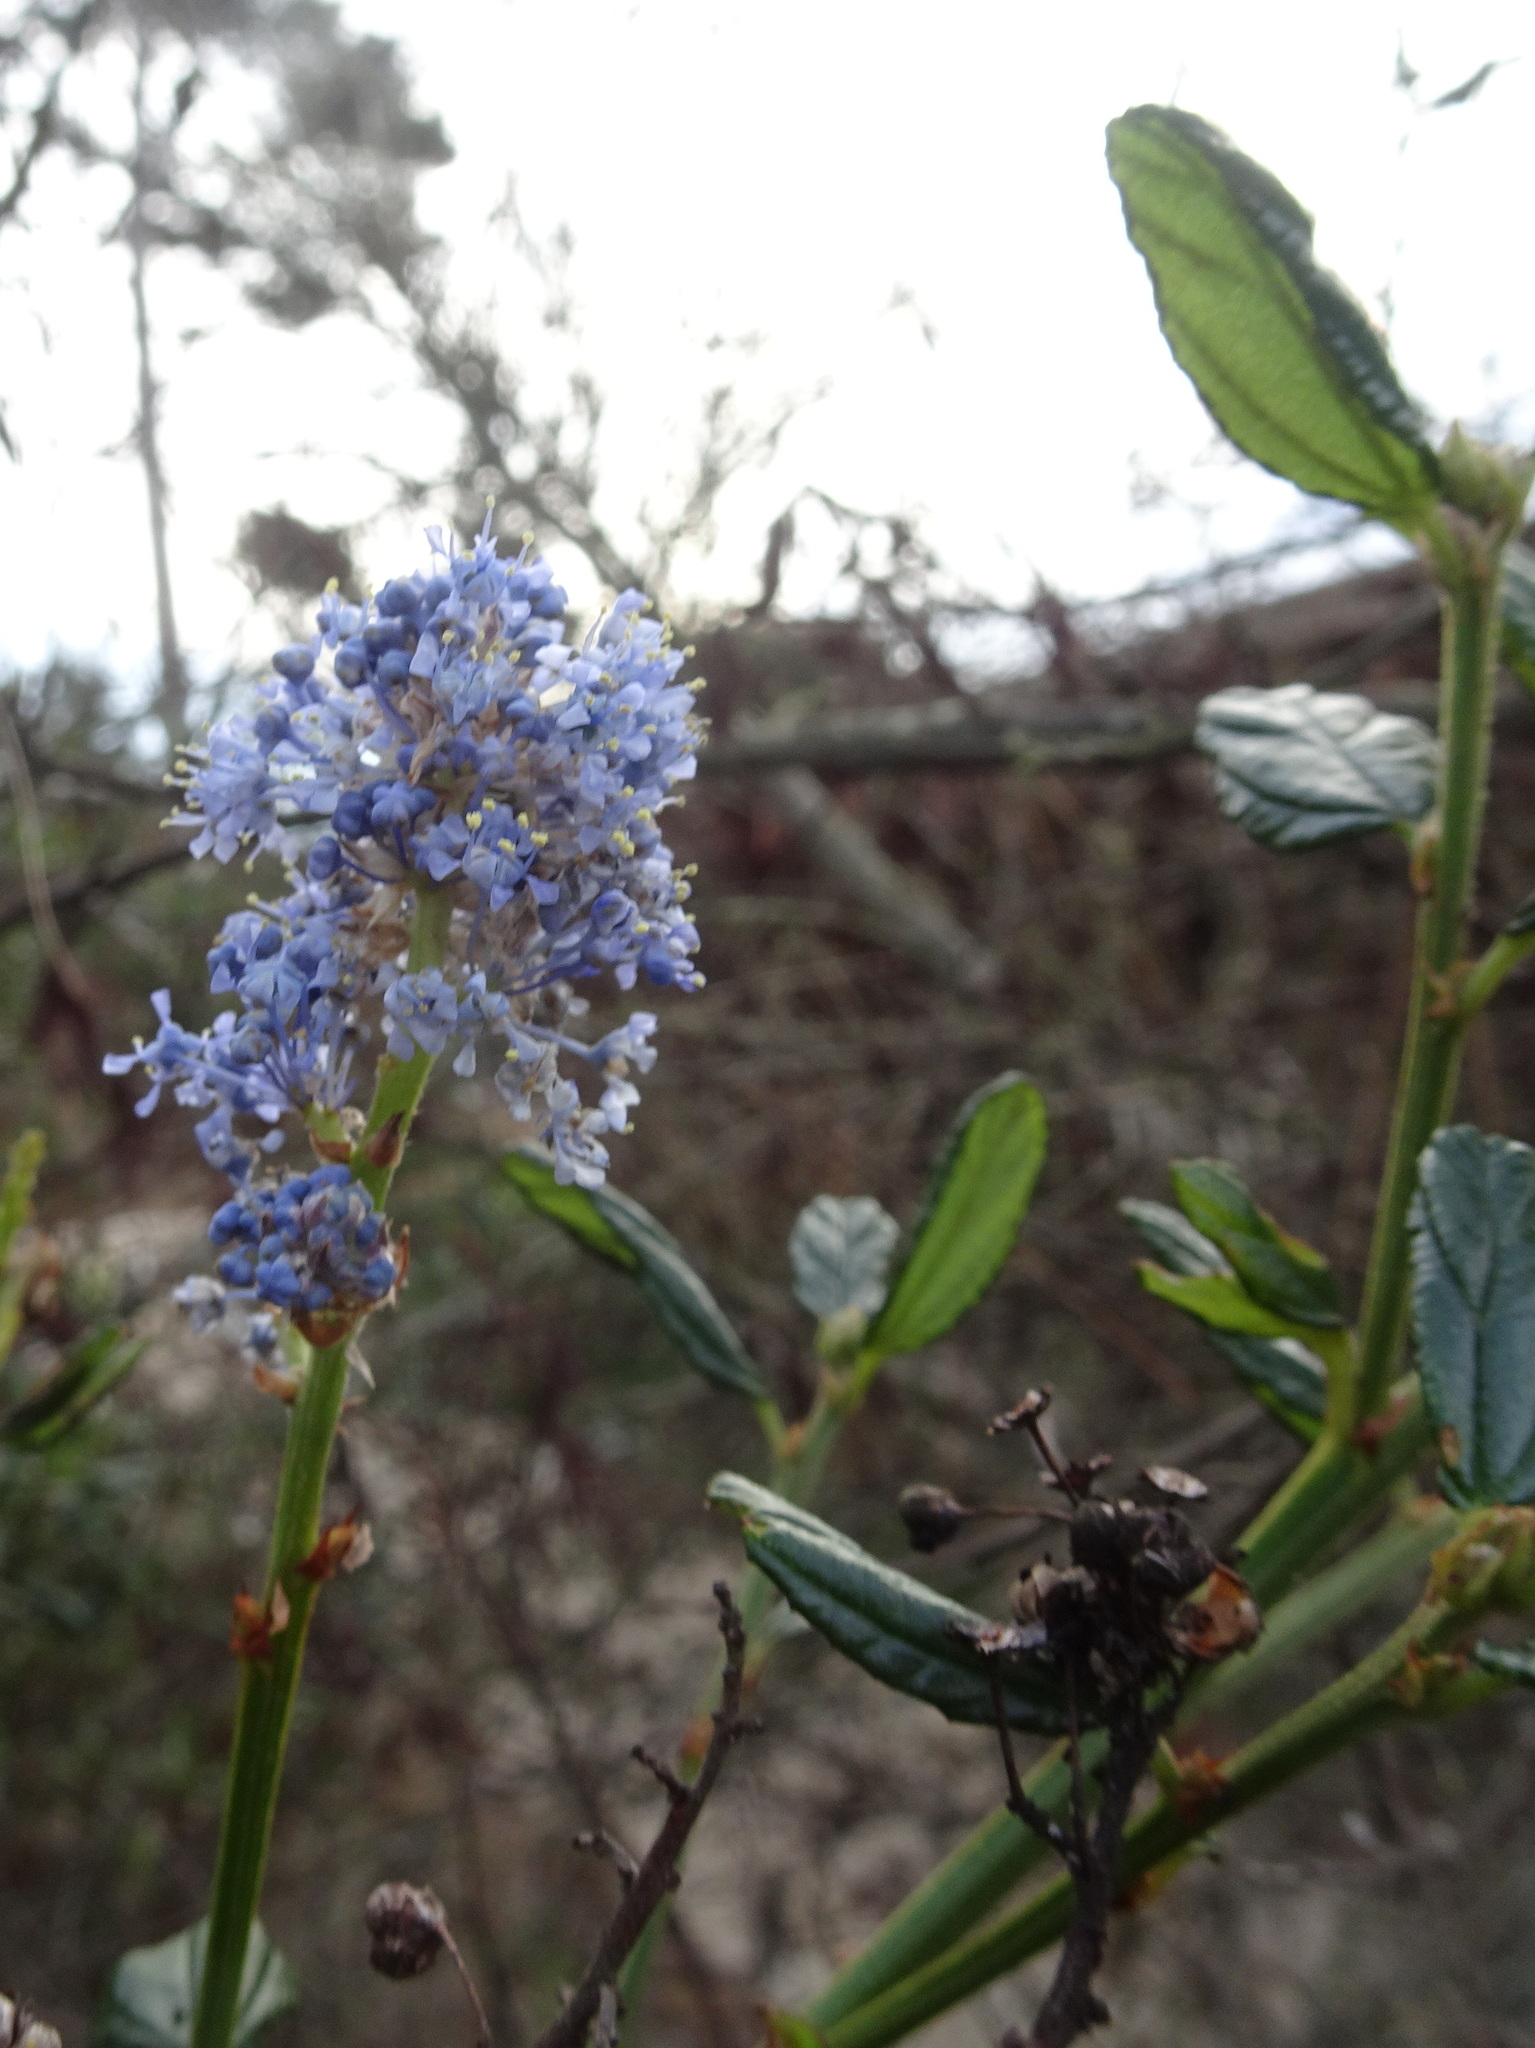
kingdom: Plantae
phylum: Tracheophyta
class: Magnoliopsida
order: Rosales
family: Rhamnaceae
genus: Ceanothus
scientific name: Ceanothus thyrsiflorus
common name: California-lilac
